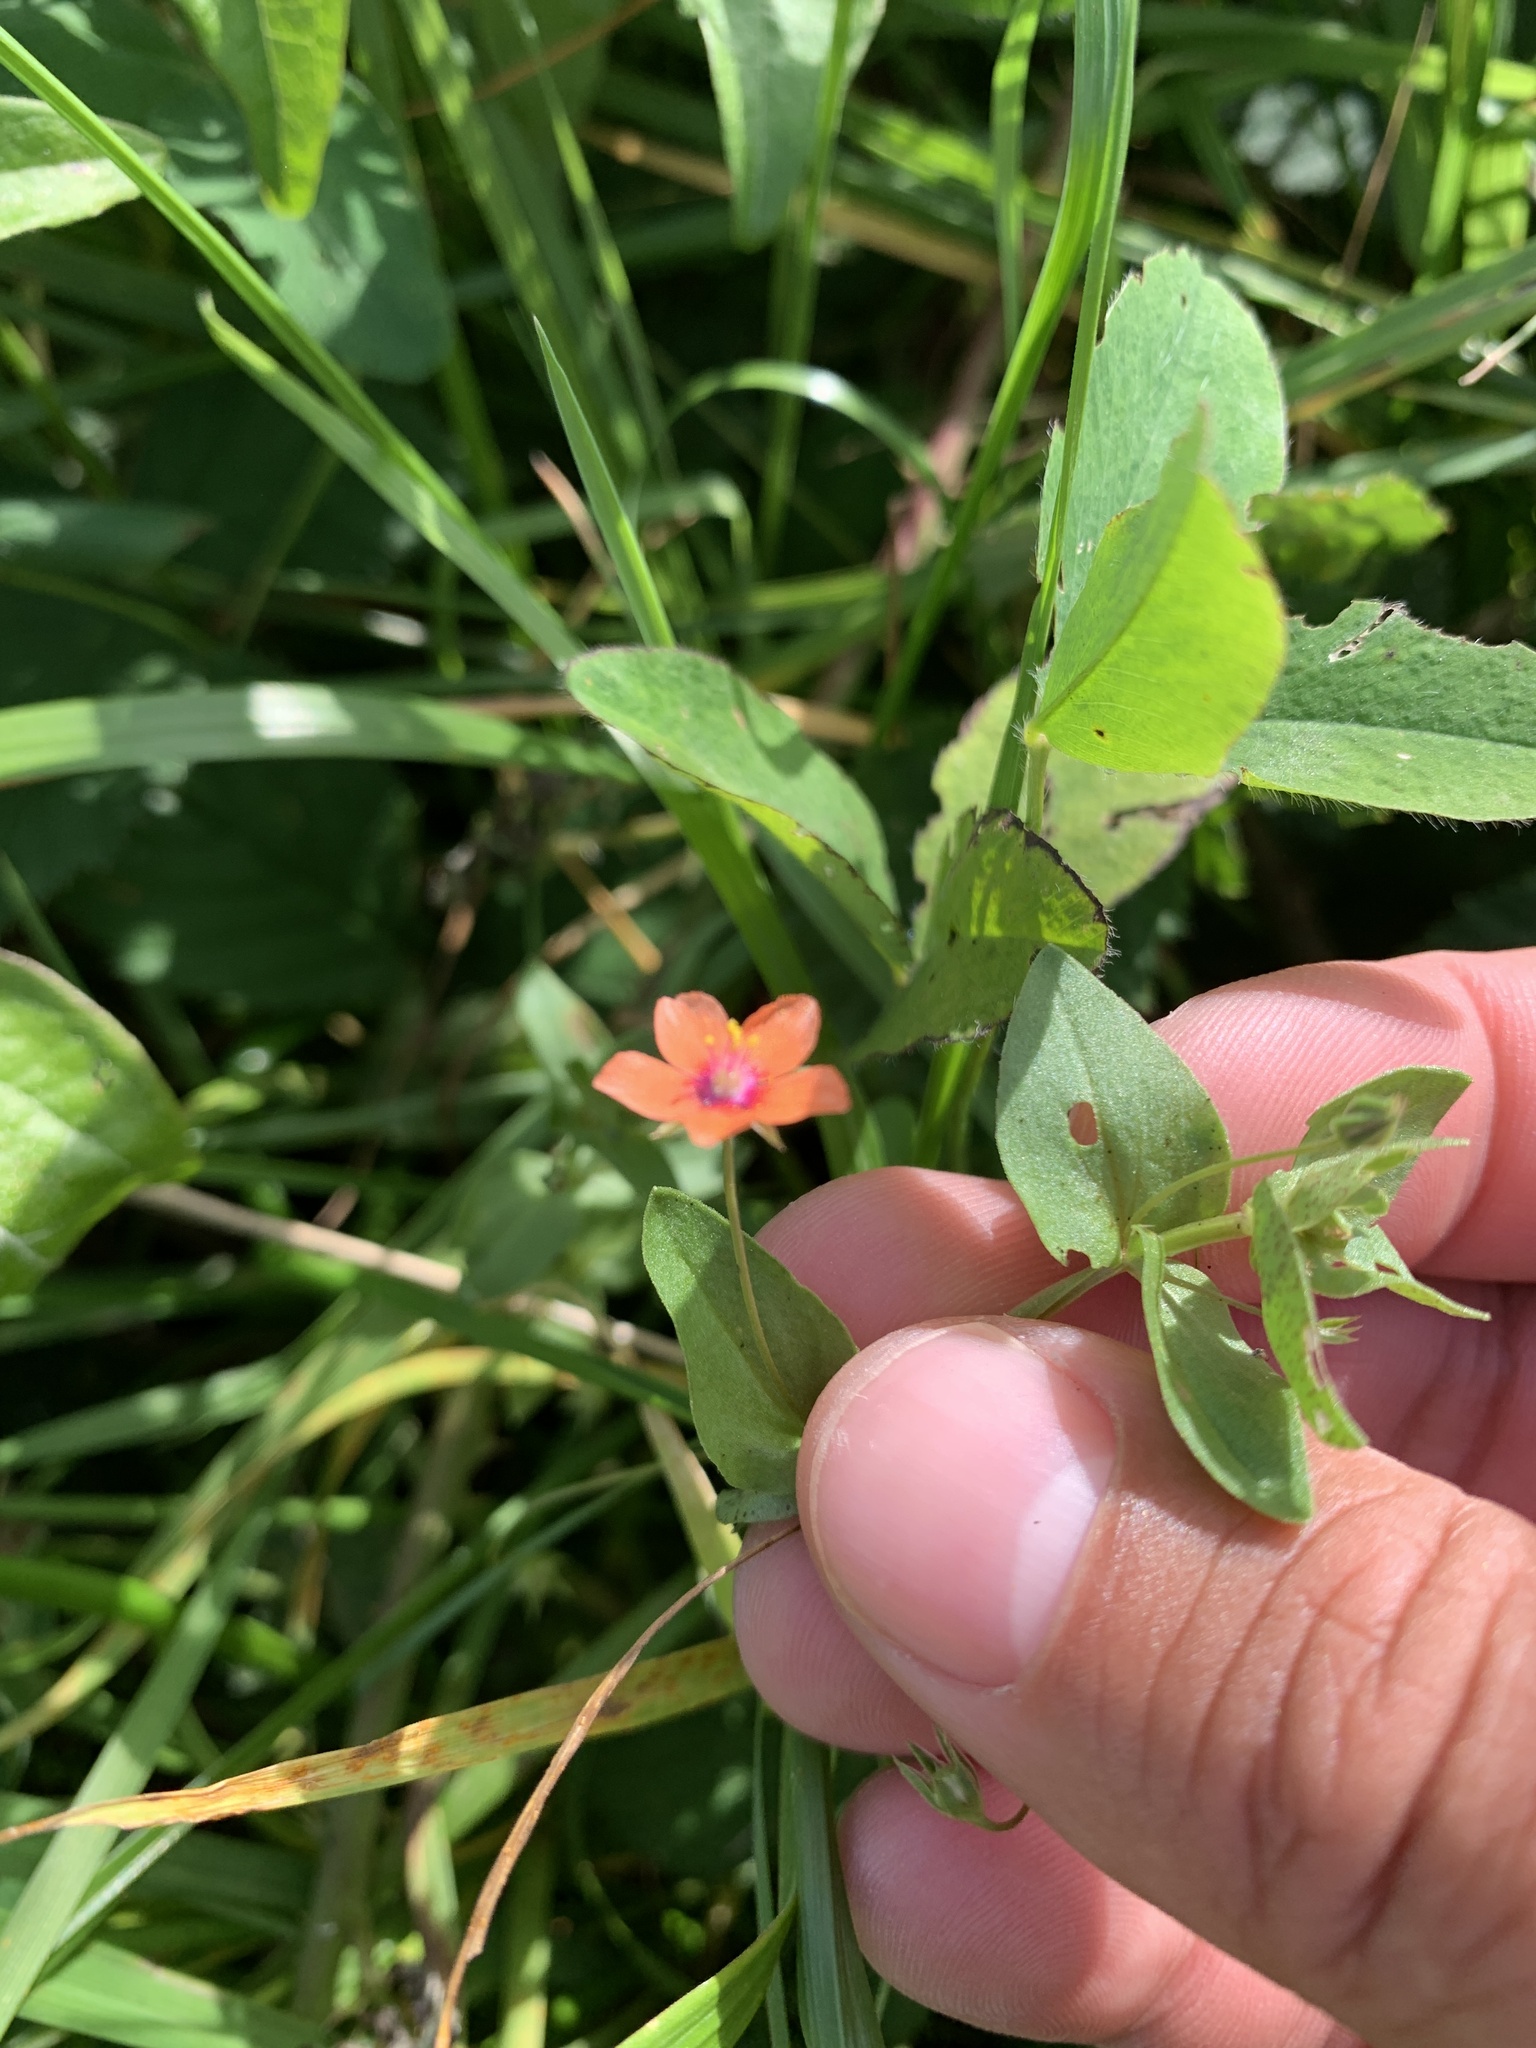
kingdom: Plantae
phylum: Tracheophyta
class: Magnoliopsida
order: Ericales
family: Primulaceae
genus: Lysimachia
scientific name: Lysimachia arvensis
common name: Scarlet pimpernel
